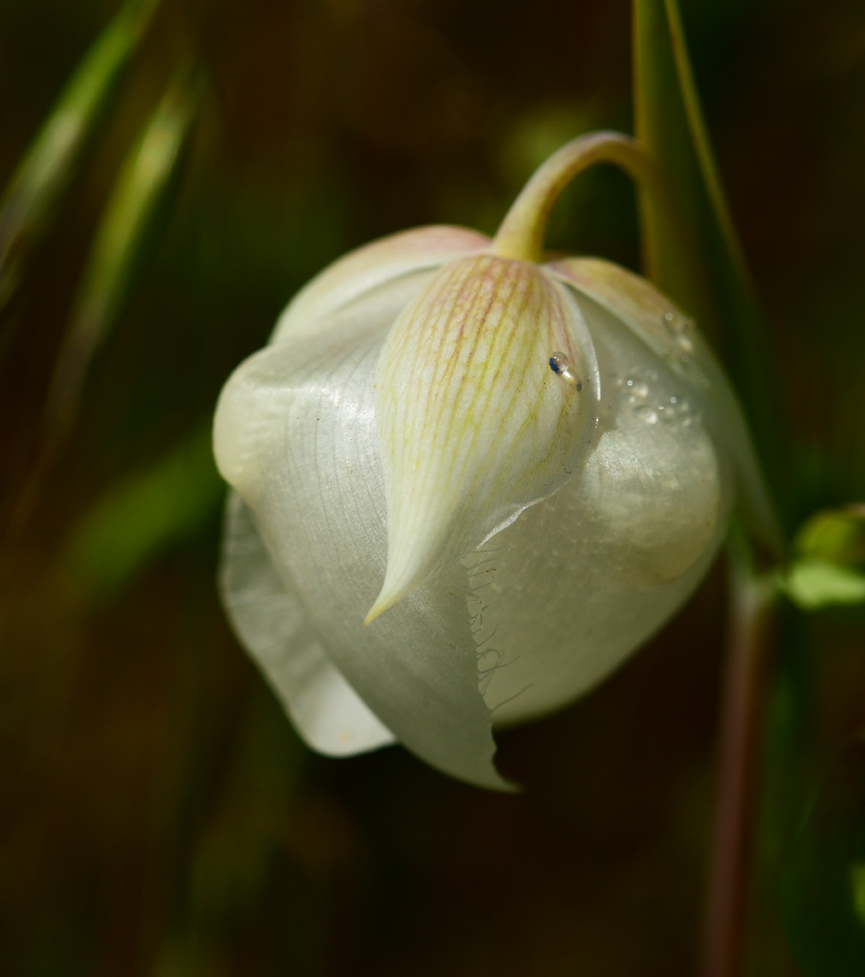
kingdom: Plantae
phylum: Tracheophyta
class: Liliopsida
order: Liliales
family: Liliaceae
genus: Calochortus
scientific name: Calochortus albus
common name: Fairy-lantern
